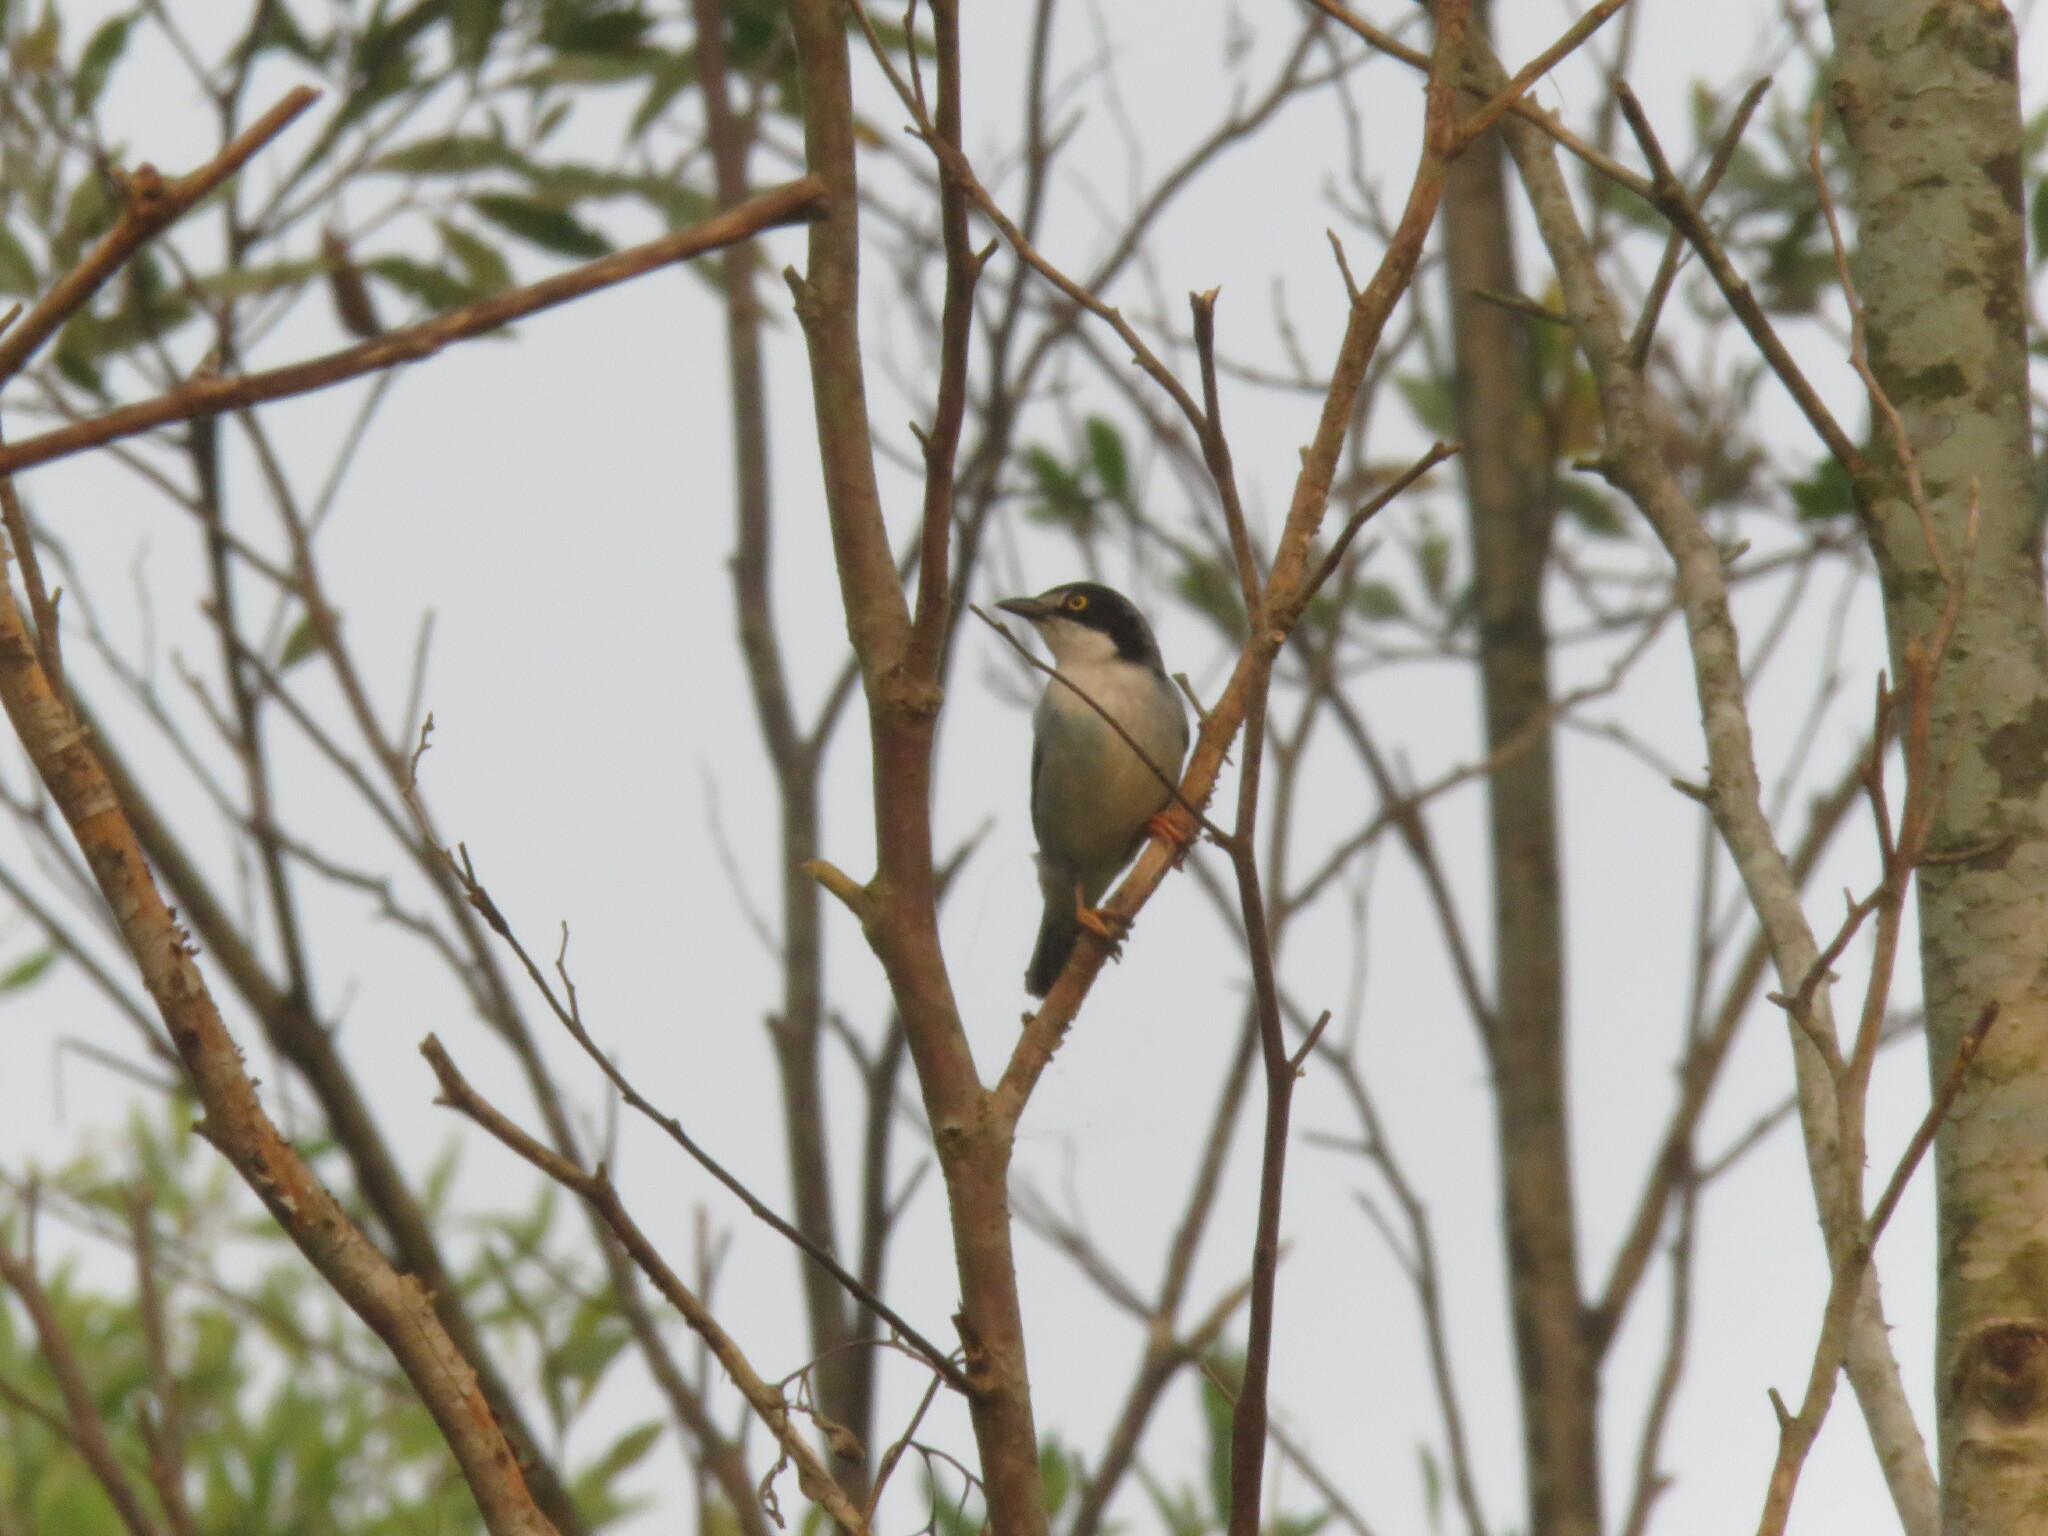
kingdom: Animalia
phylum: Chordata
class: Aves
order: Passeriformes
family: Thraupidae
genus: Nemosia
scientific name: Nemosia pileata
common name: Hooded tanager
